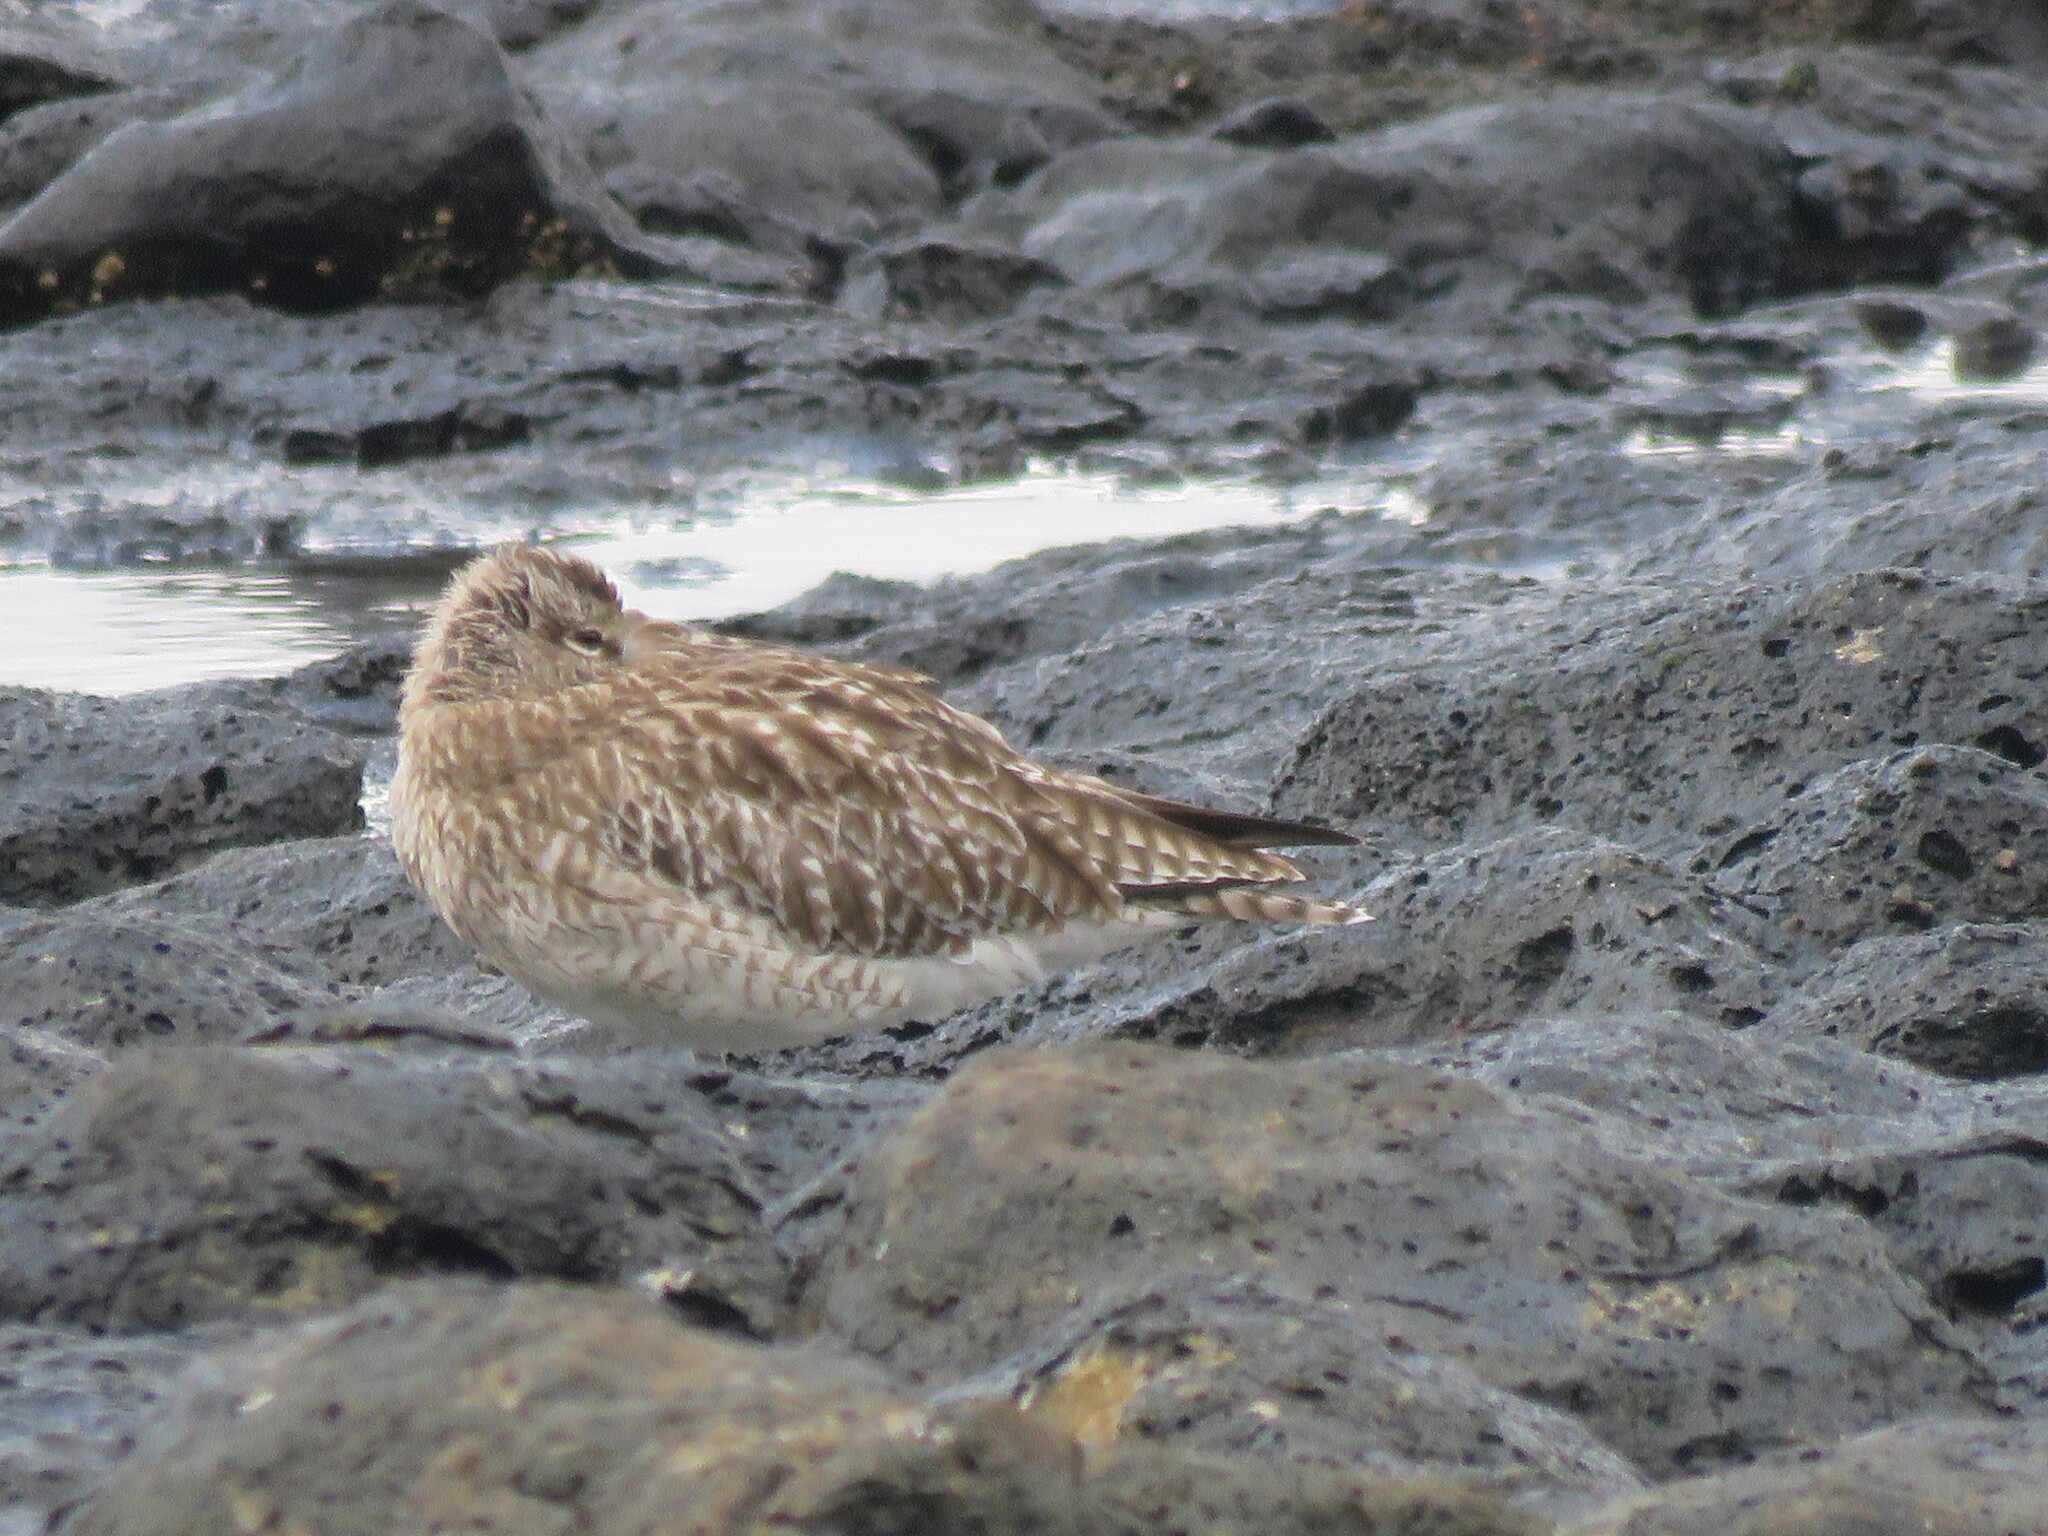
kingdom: Animalia
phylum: Chordata
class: Aves
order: Charadriiformes
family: Scolopacidae
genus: Numenius
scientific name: Numenius phaeopus
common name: Whimbrel
